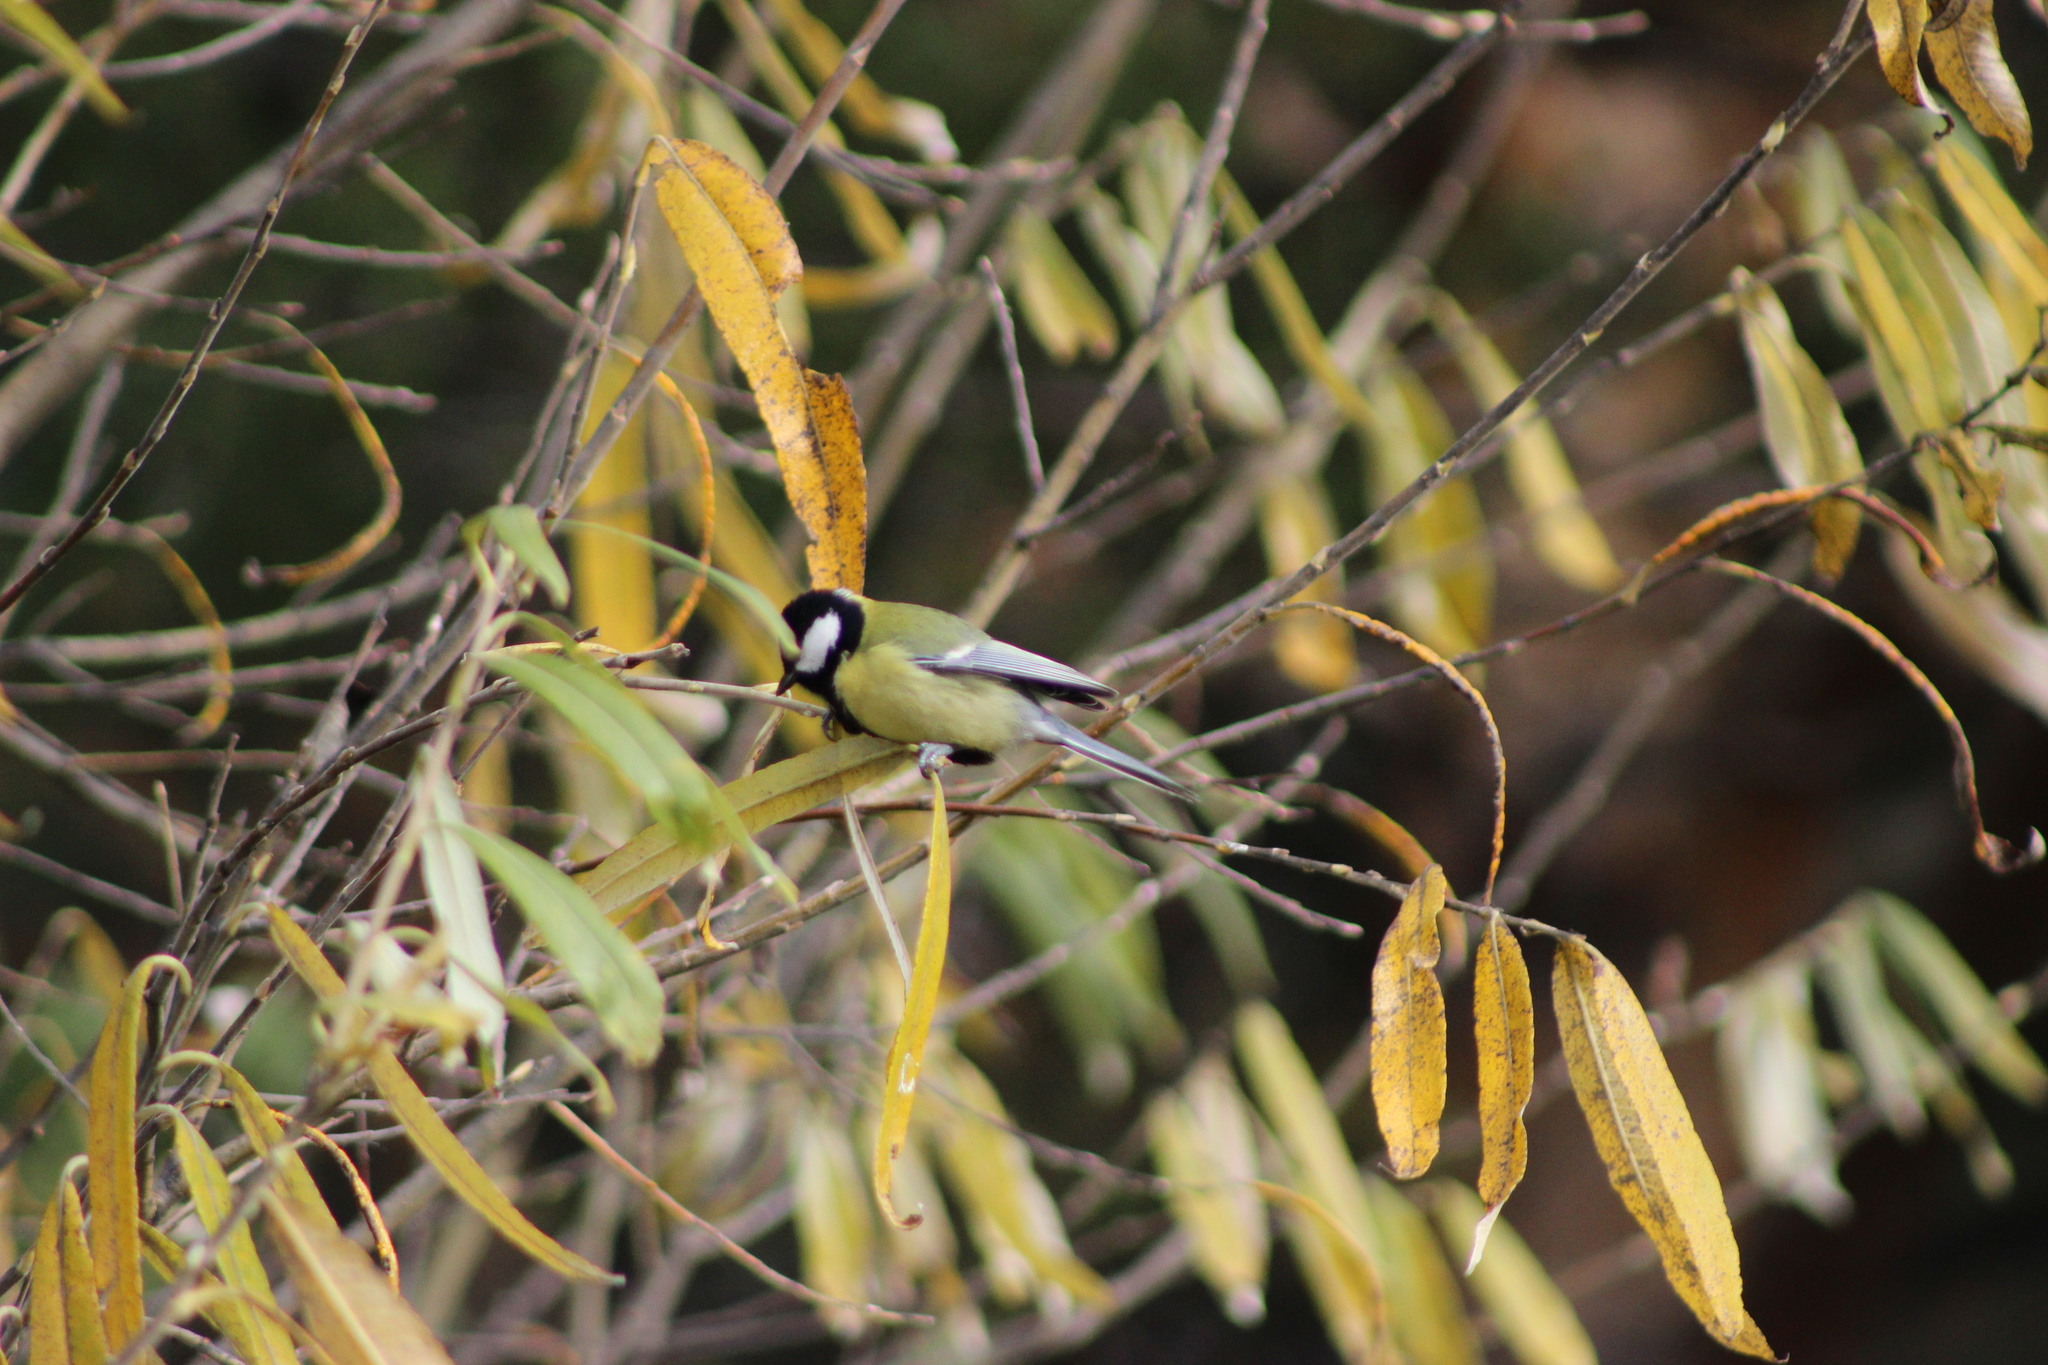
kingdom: Animalia
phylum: Chordata
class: Aves
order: Passeriformes
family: Paridae
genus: Parus
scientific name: Parus major
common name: Great tit
